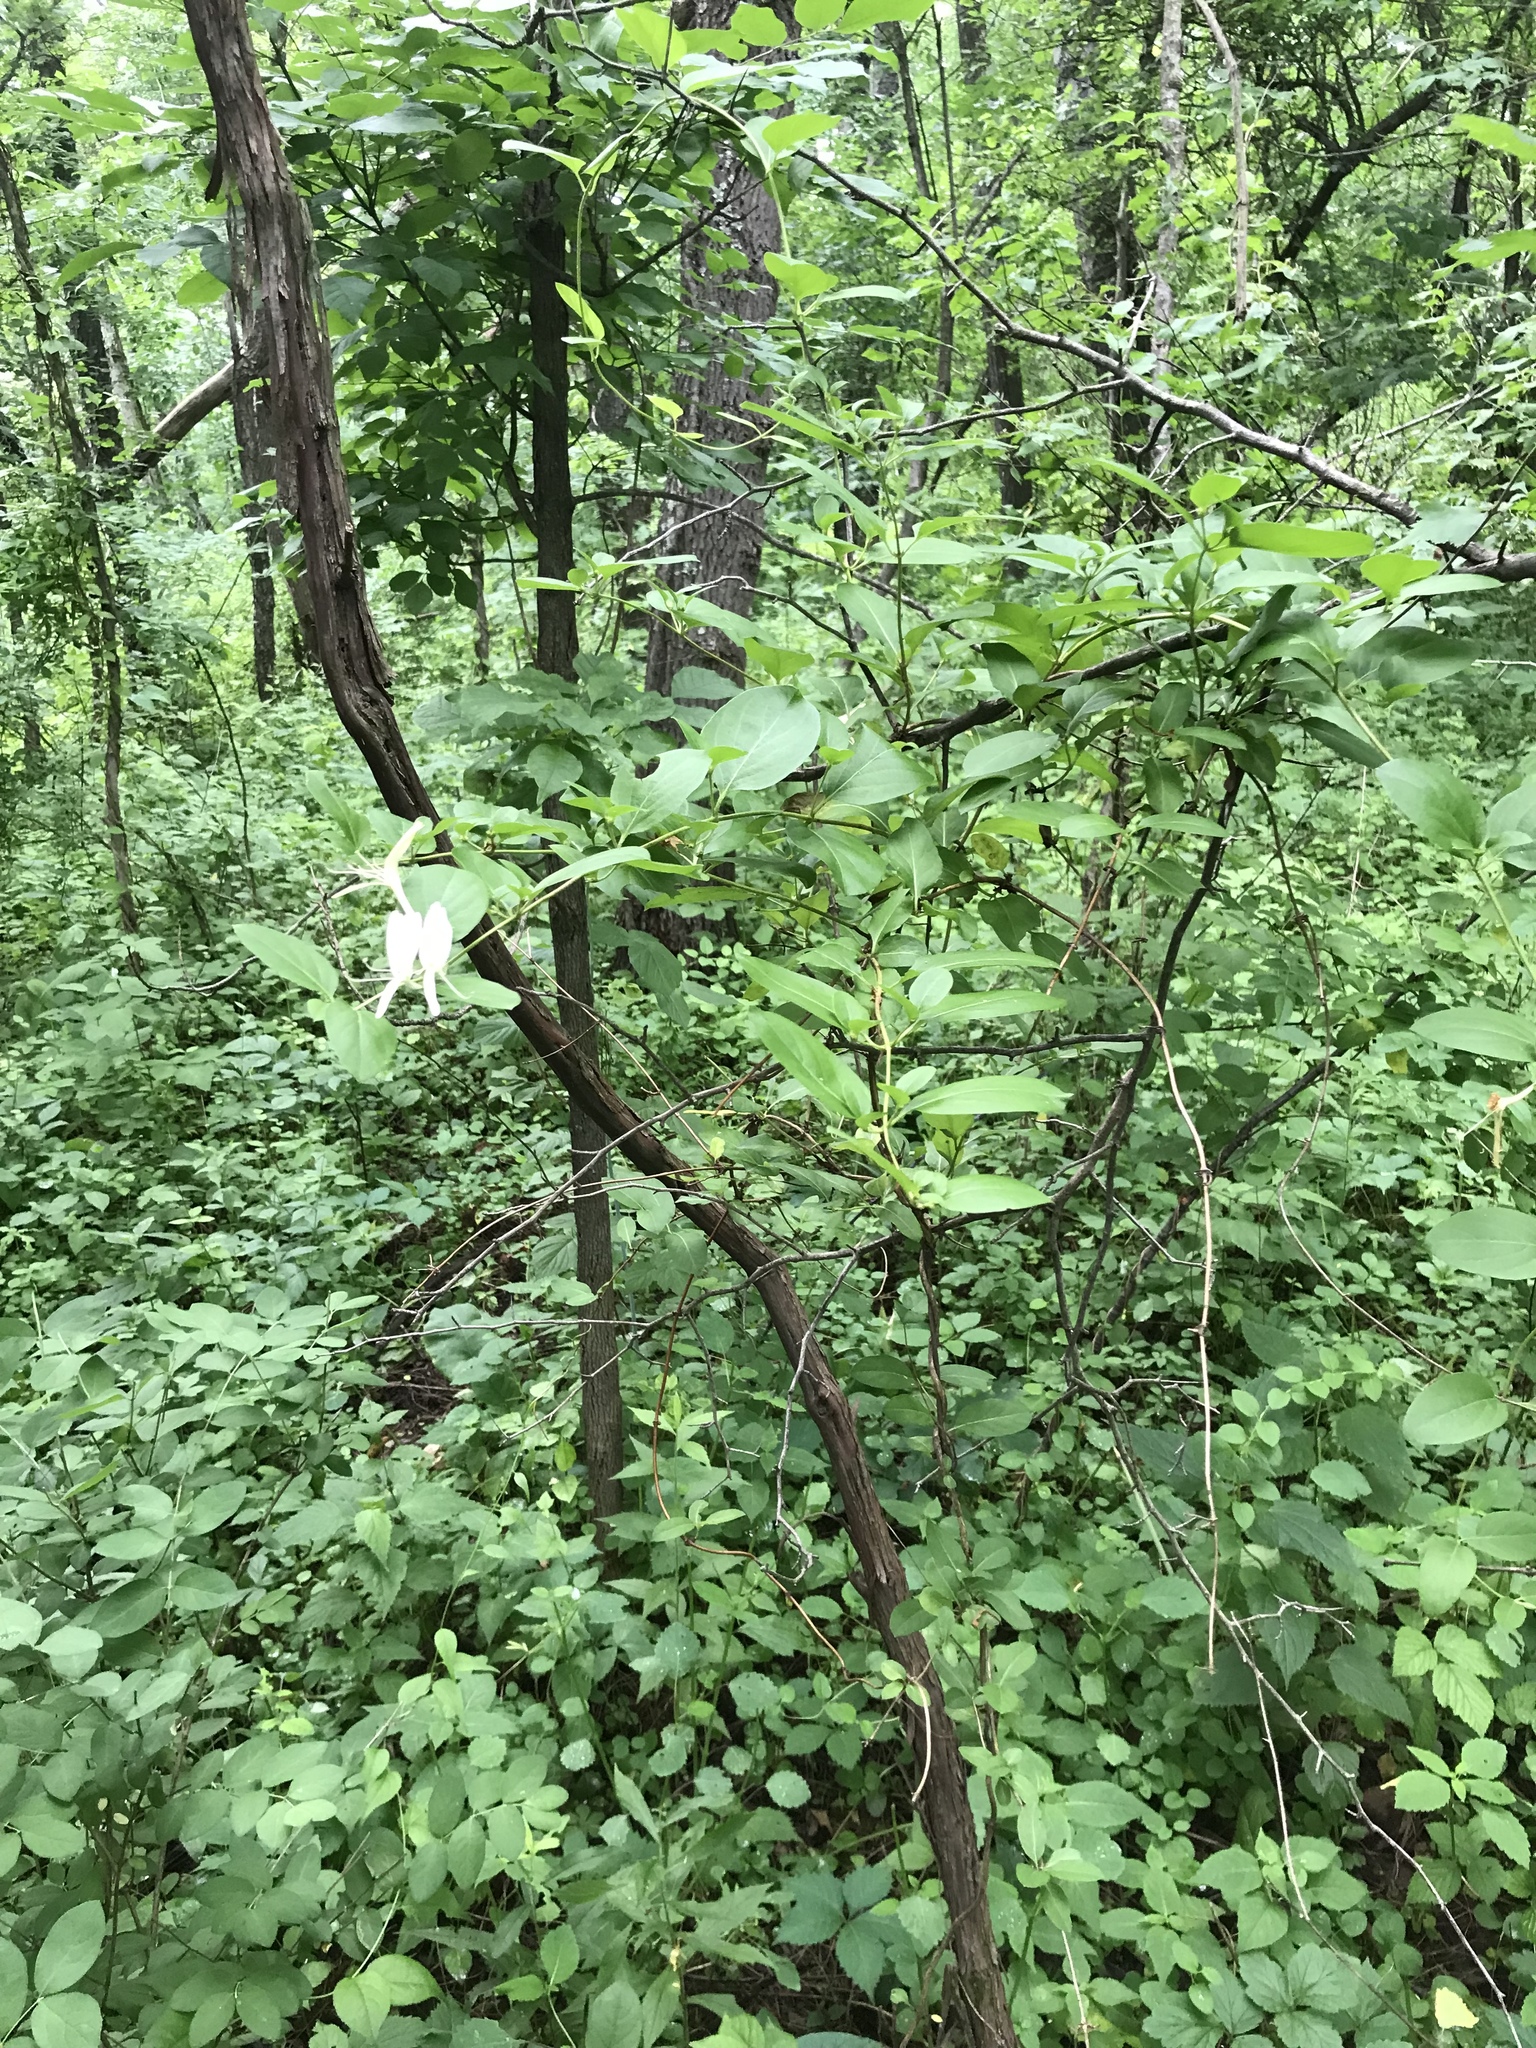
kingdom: Plantae
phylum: Tracheophyta
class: Magnoliopsida
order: Dipsacales
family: Caprifoliaceae
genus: Lonicera
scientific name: Lonicera japonica
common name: Japanese honeysuckle
